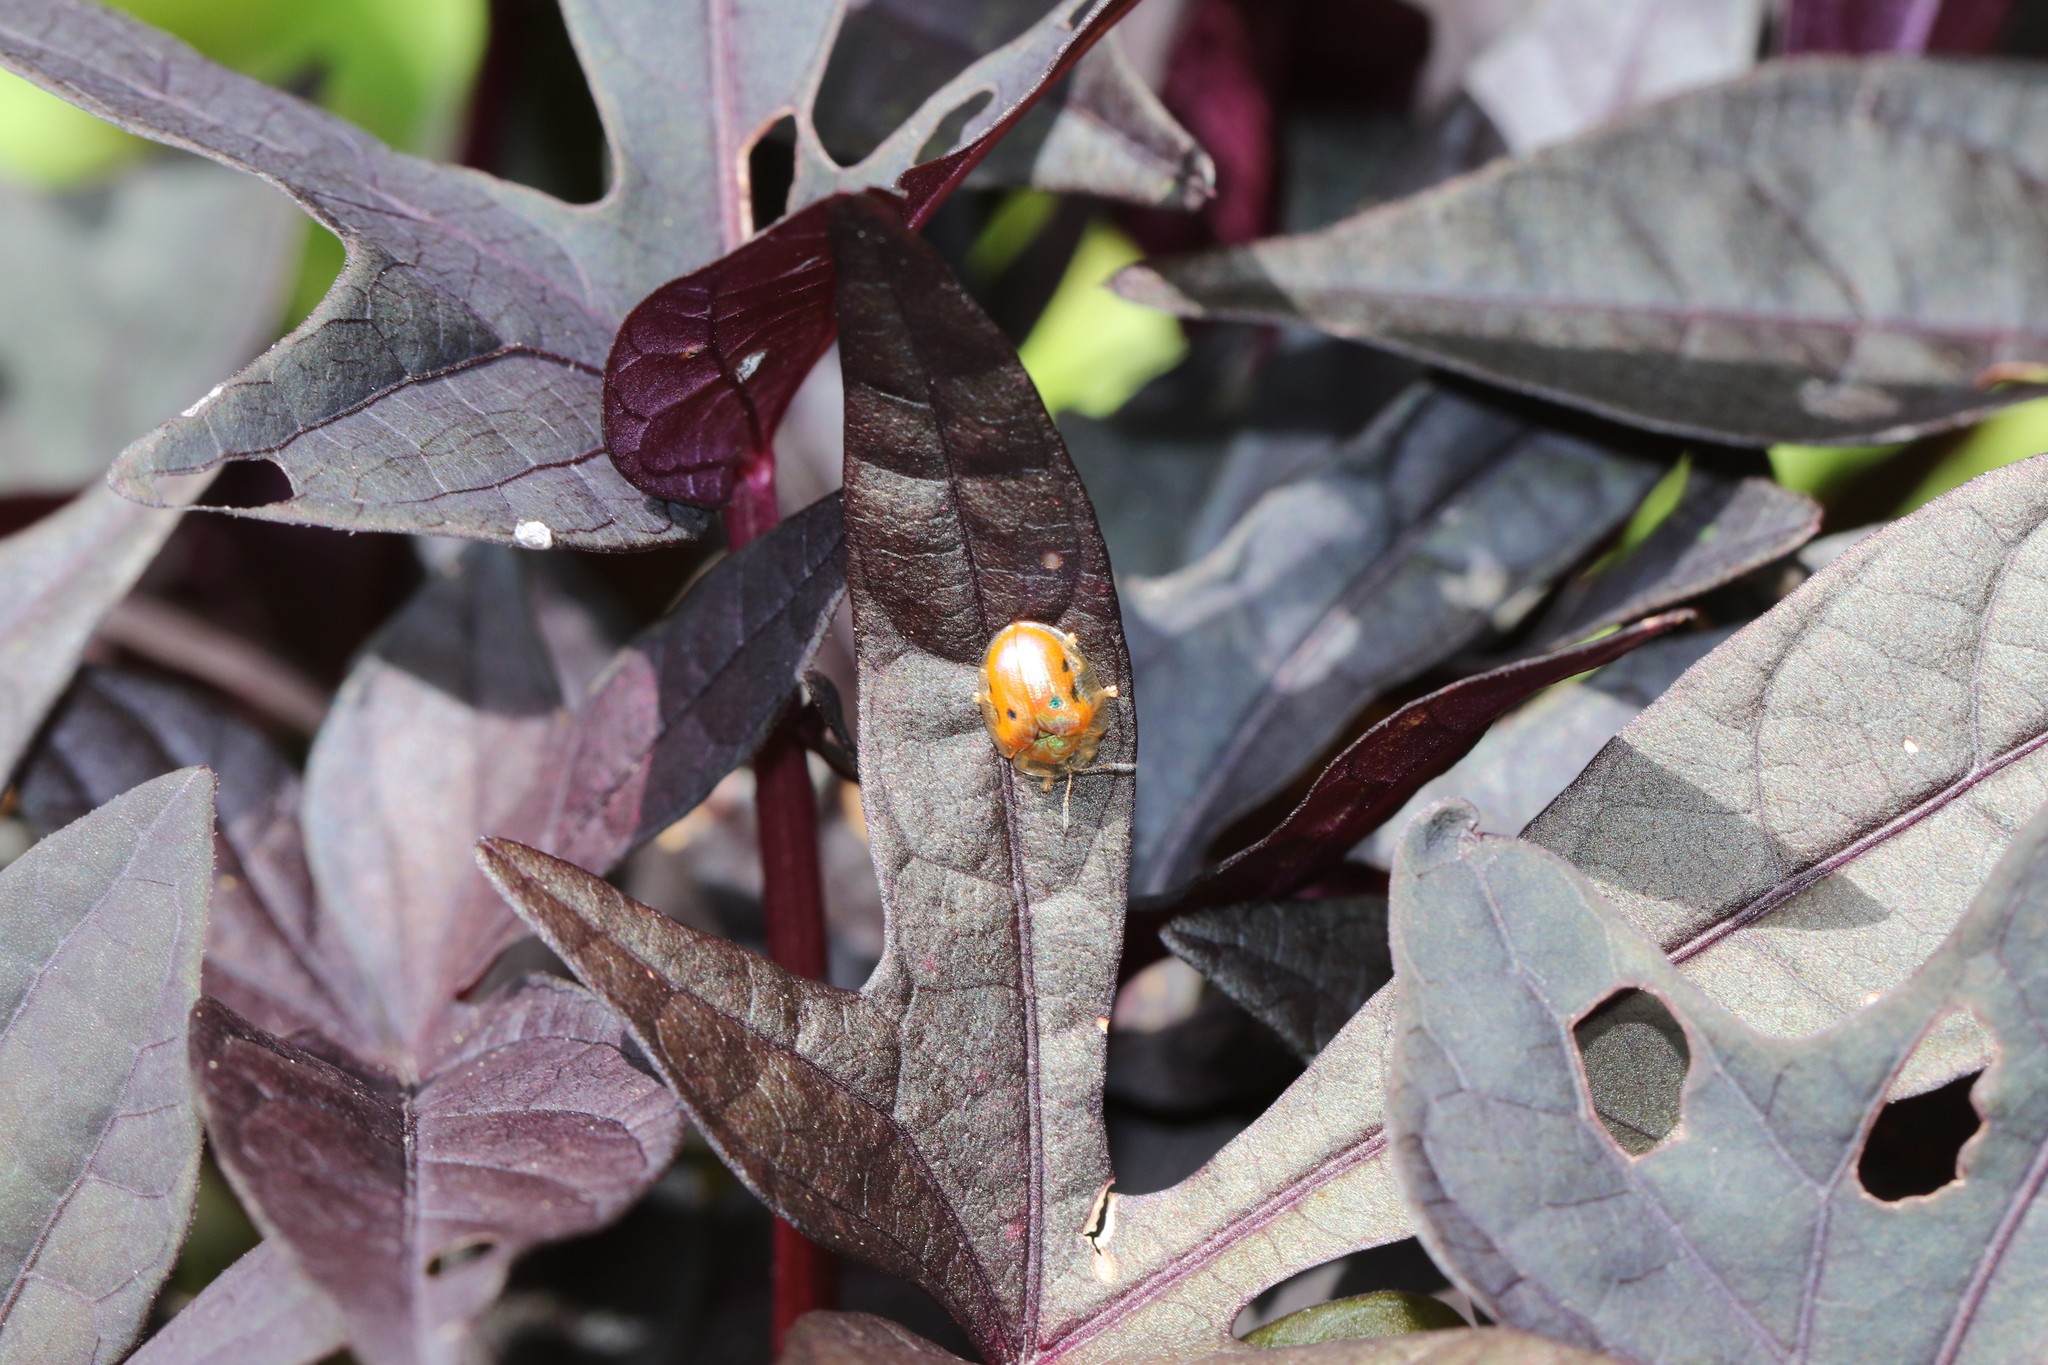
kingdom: Animalia
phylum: Arthropoda
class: Insecta
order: Coleoptera
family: Chrysomelidae
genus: Charidotella
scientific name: Charidotella sexpunctata
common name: Golden tortoise beetle
